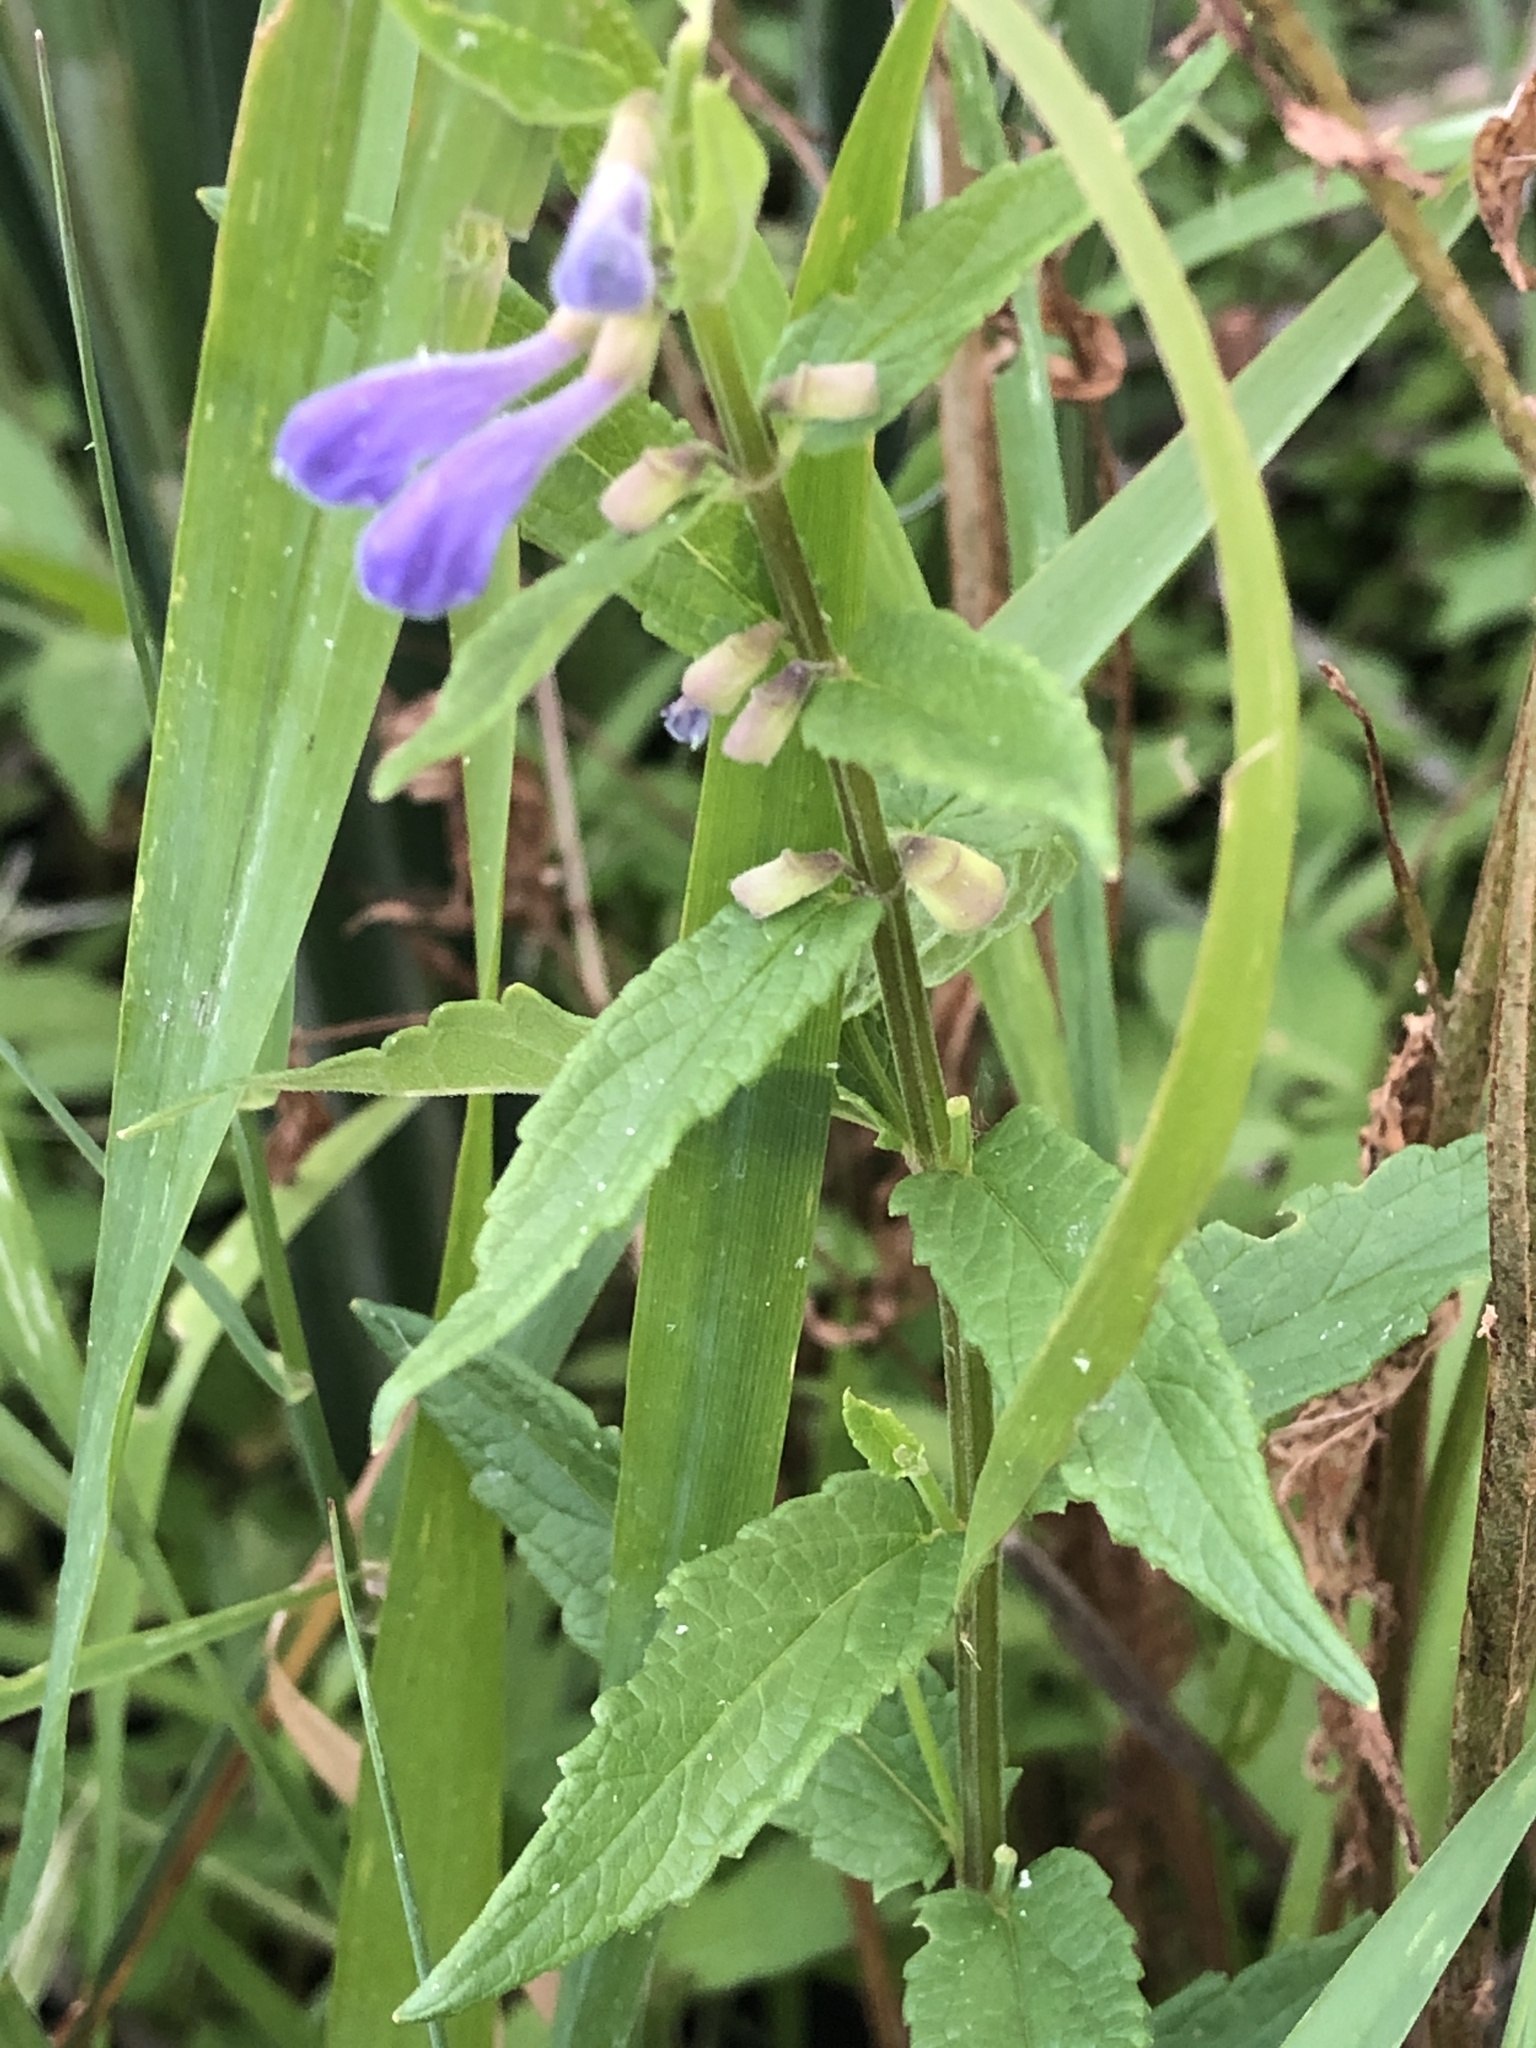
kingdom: Plantae
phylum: Tracheophyta
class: Magnoliopsida
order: Lamiales
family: Lamiaceae
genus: Scutellaria
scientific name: Scutellaria galericulata
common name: Skullcap
